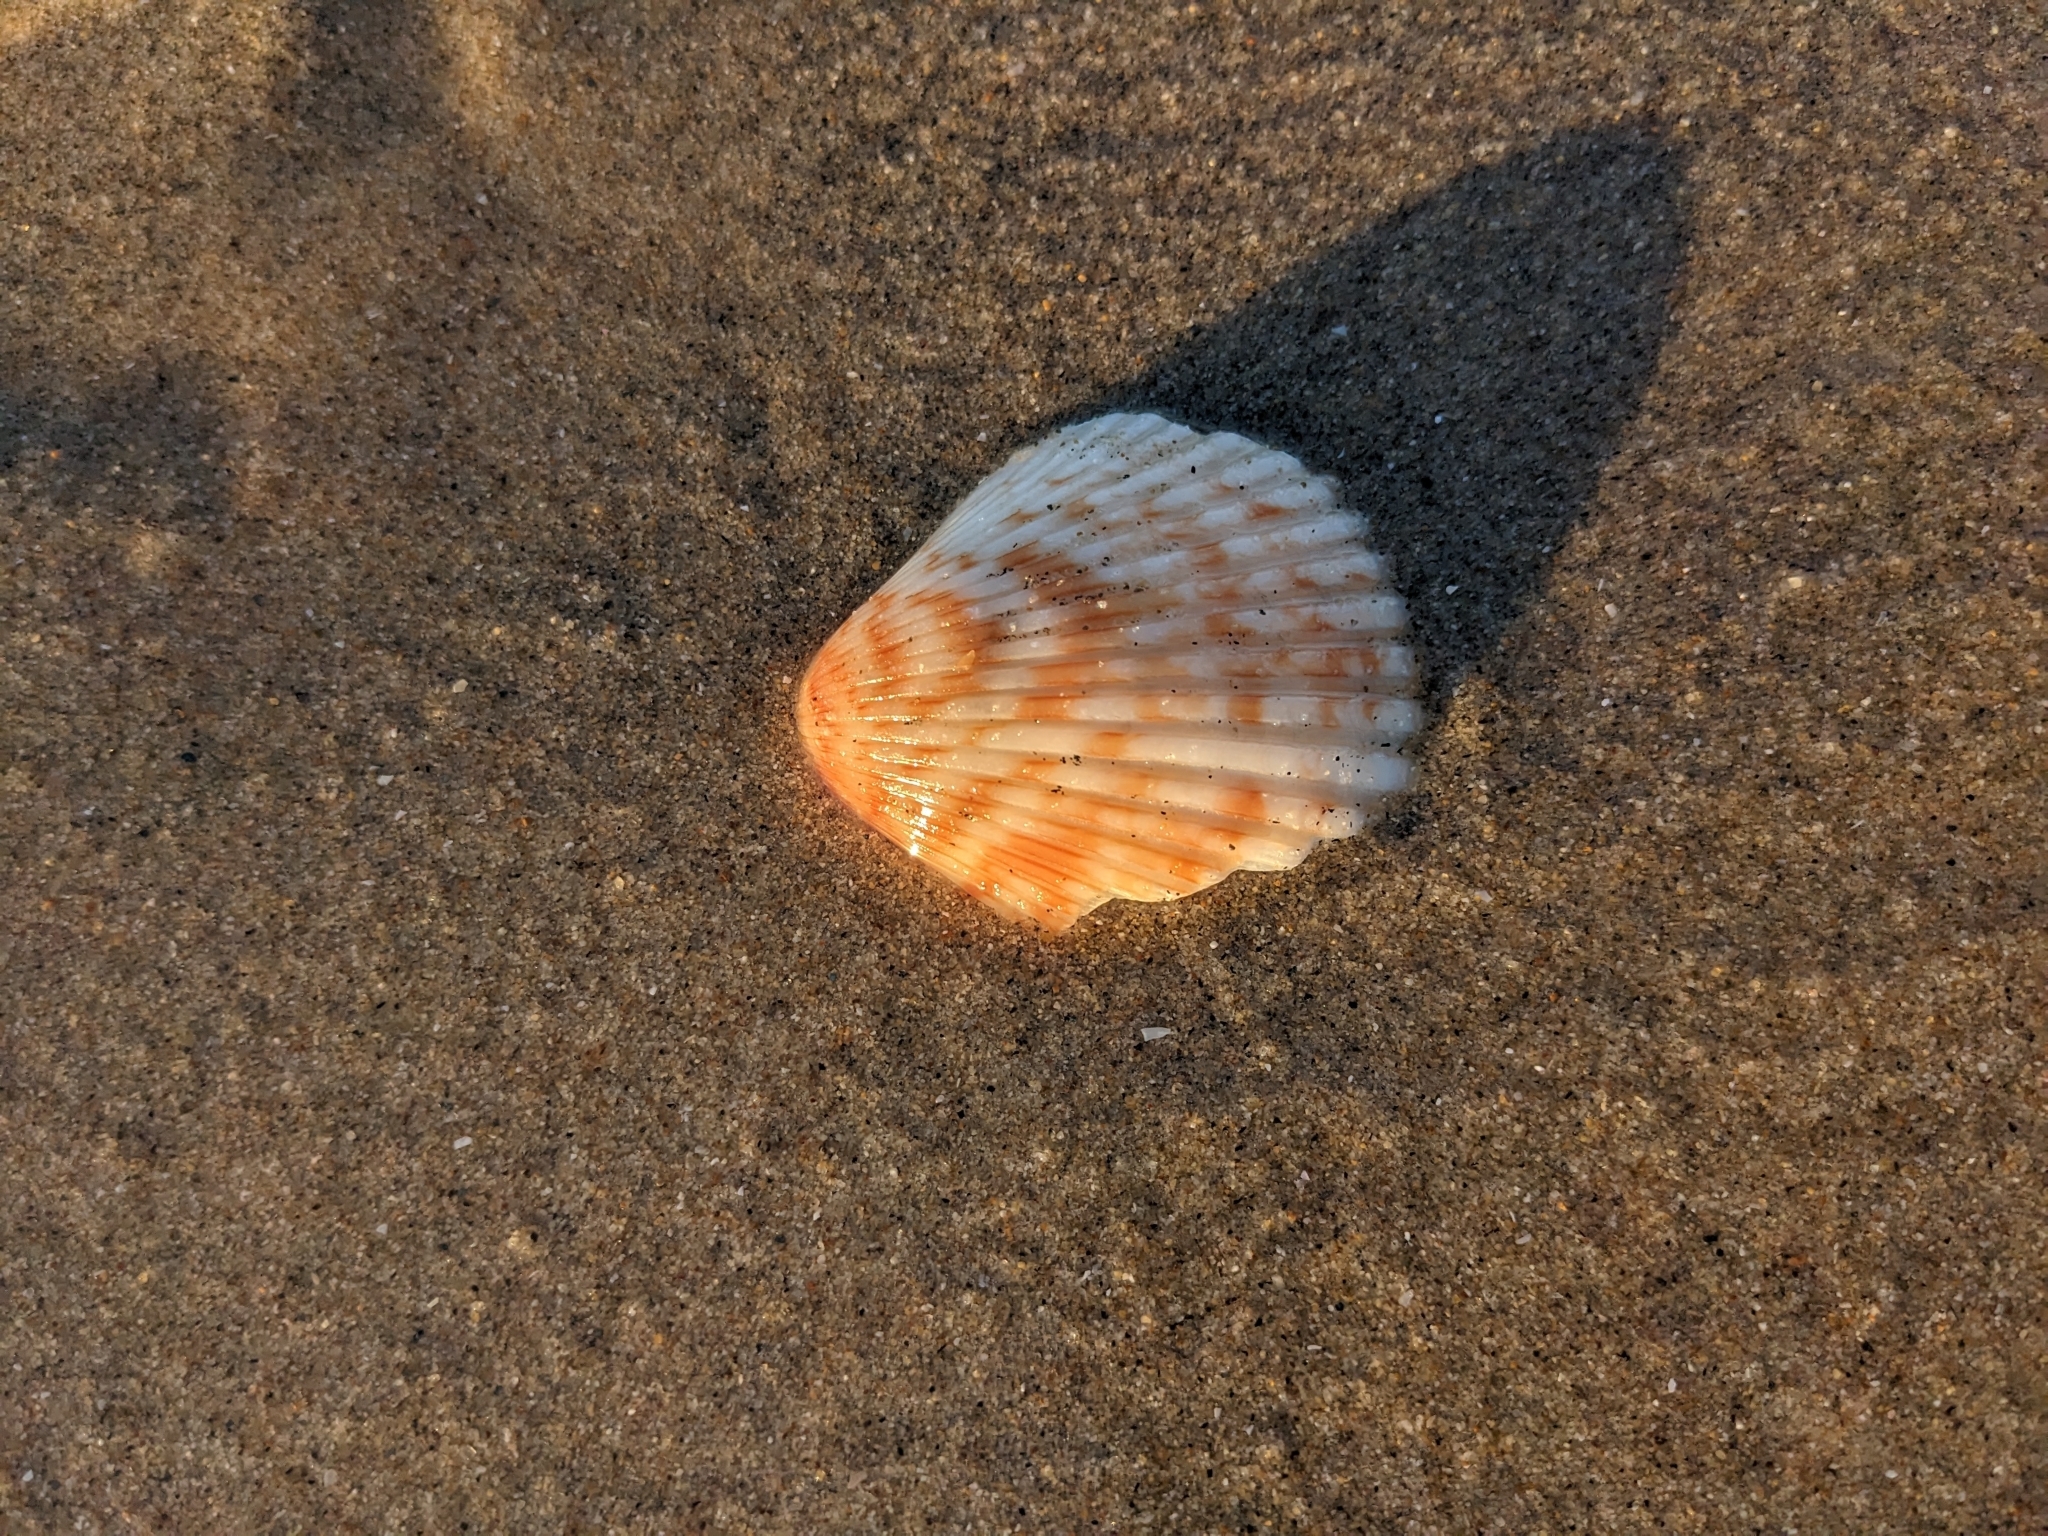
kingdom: Animalia
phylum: Mollusca
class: Bivalvia
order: Pectinida
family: Pectinidae
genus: Argopecten
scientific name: Argopecten ventricosus
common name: Catarina scallop
